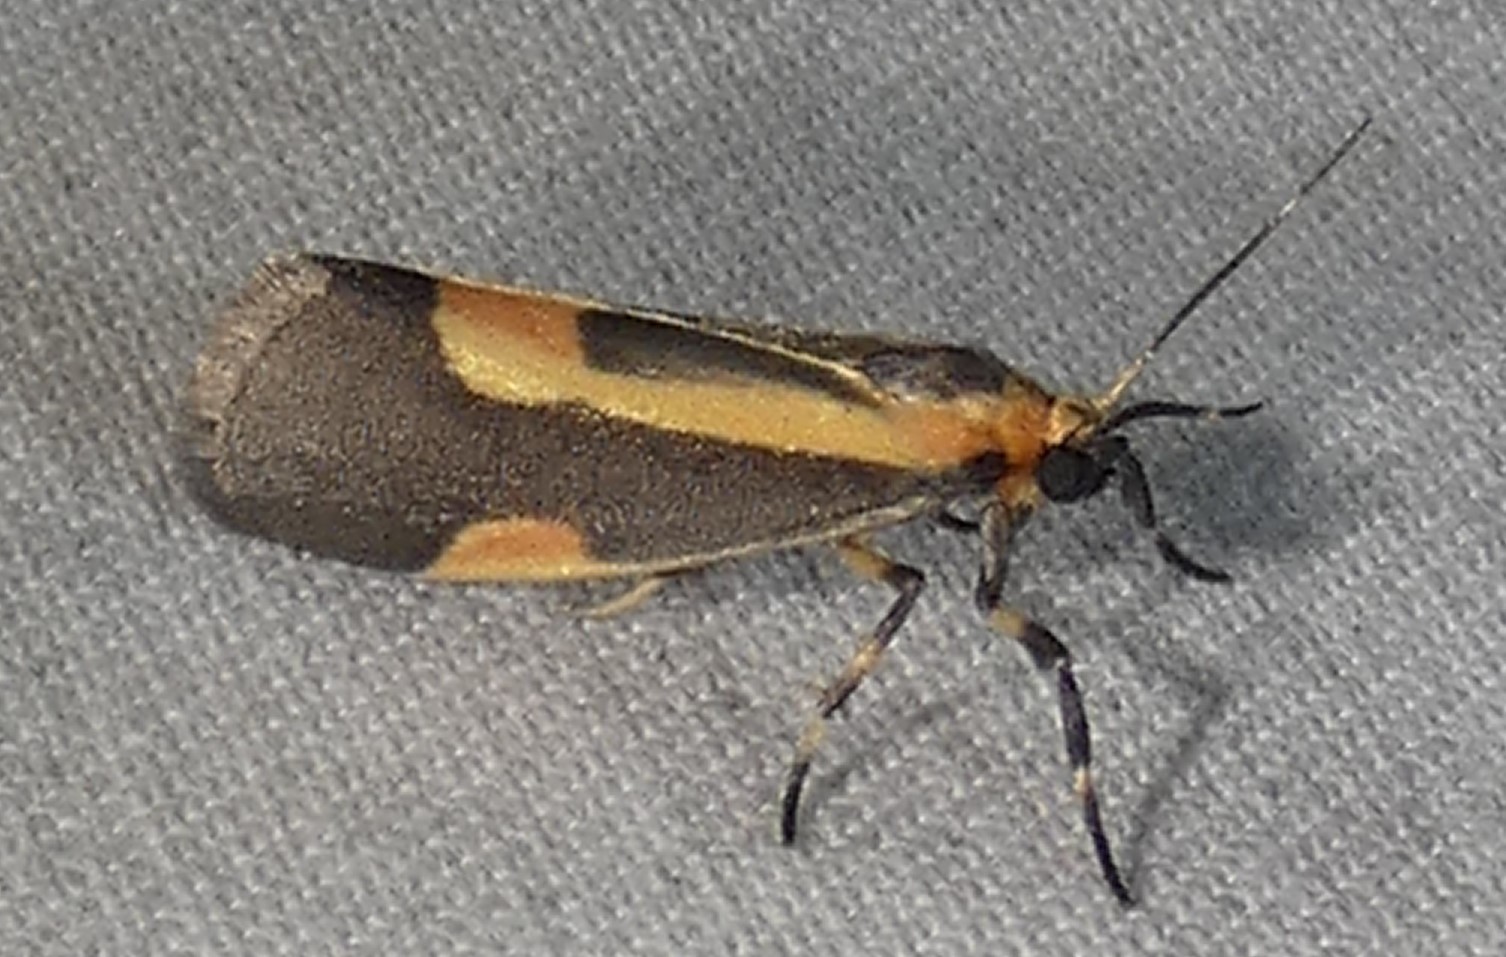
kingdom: Animalia
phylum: Arthropoda
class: Insecta
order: Lepidoptera
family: Erebidae
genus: Cisthene
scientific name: Cisthene packardii
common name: Packard's lichen moth
